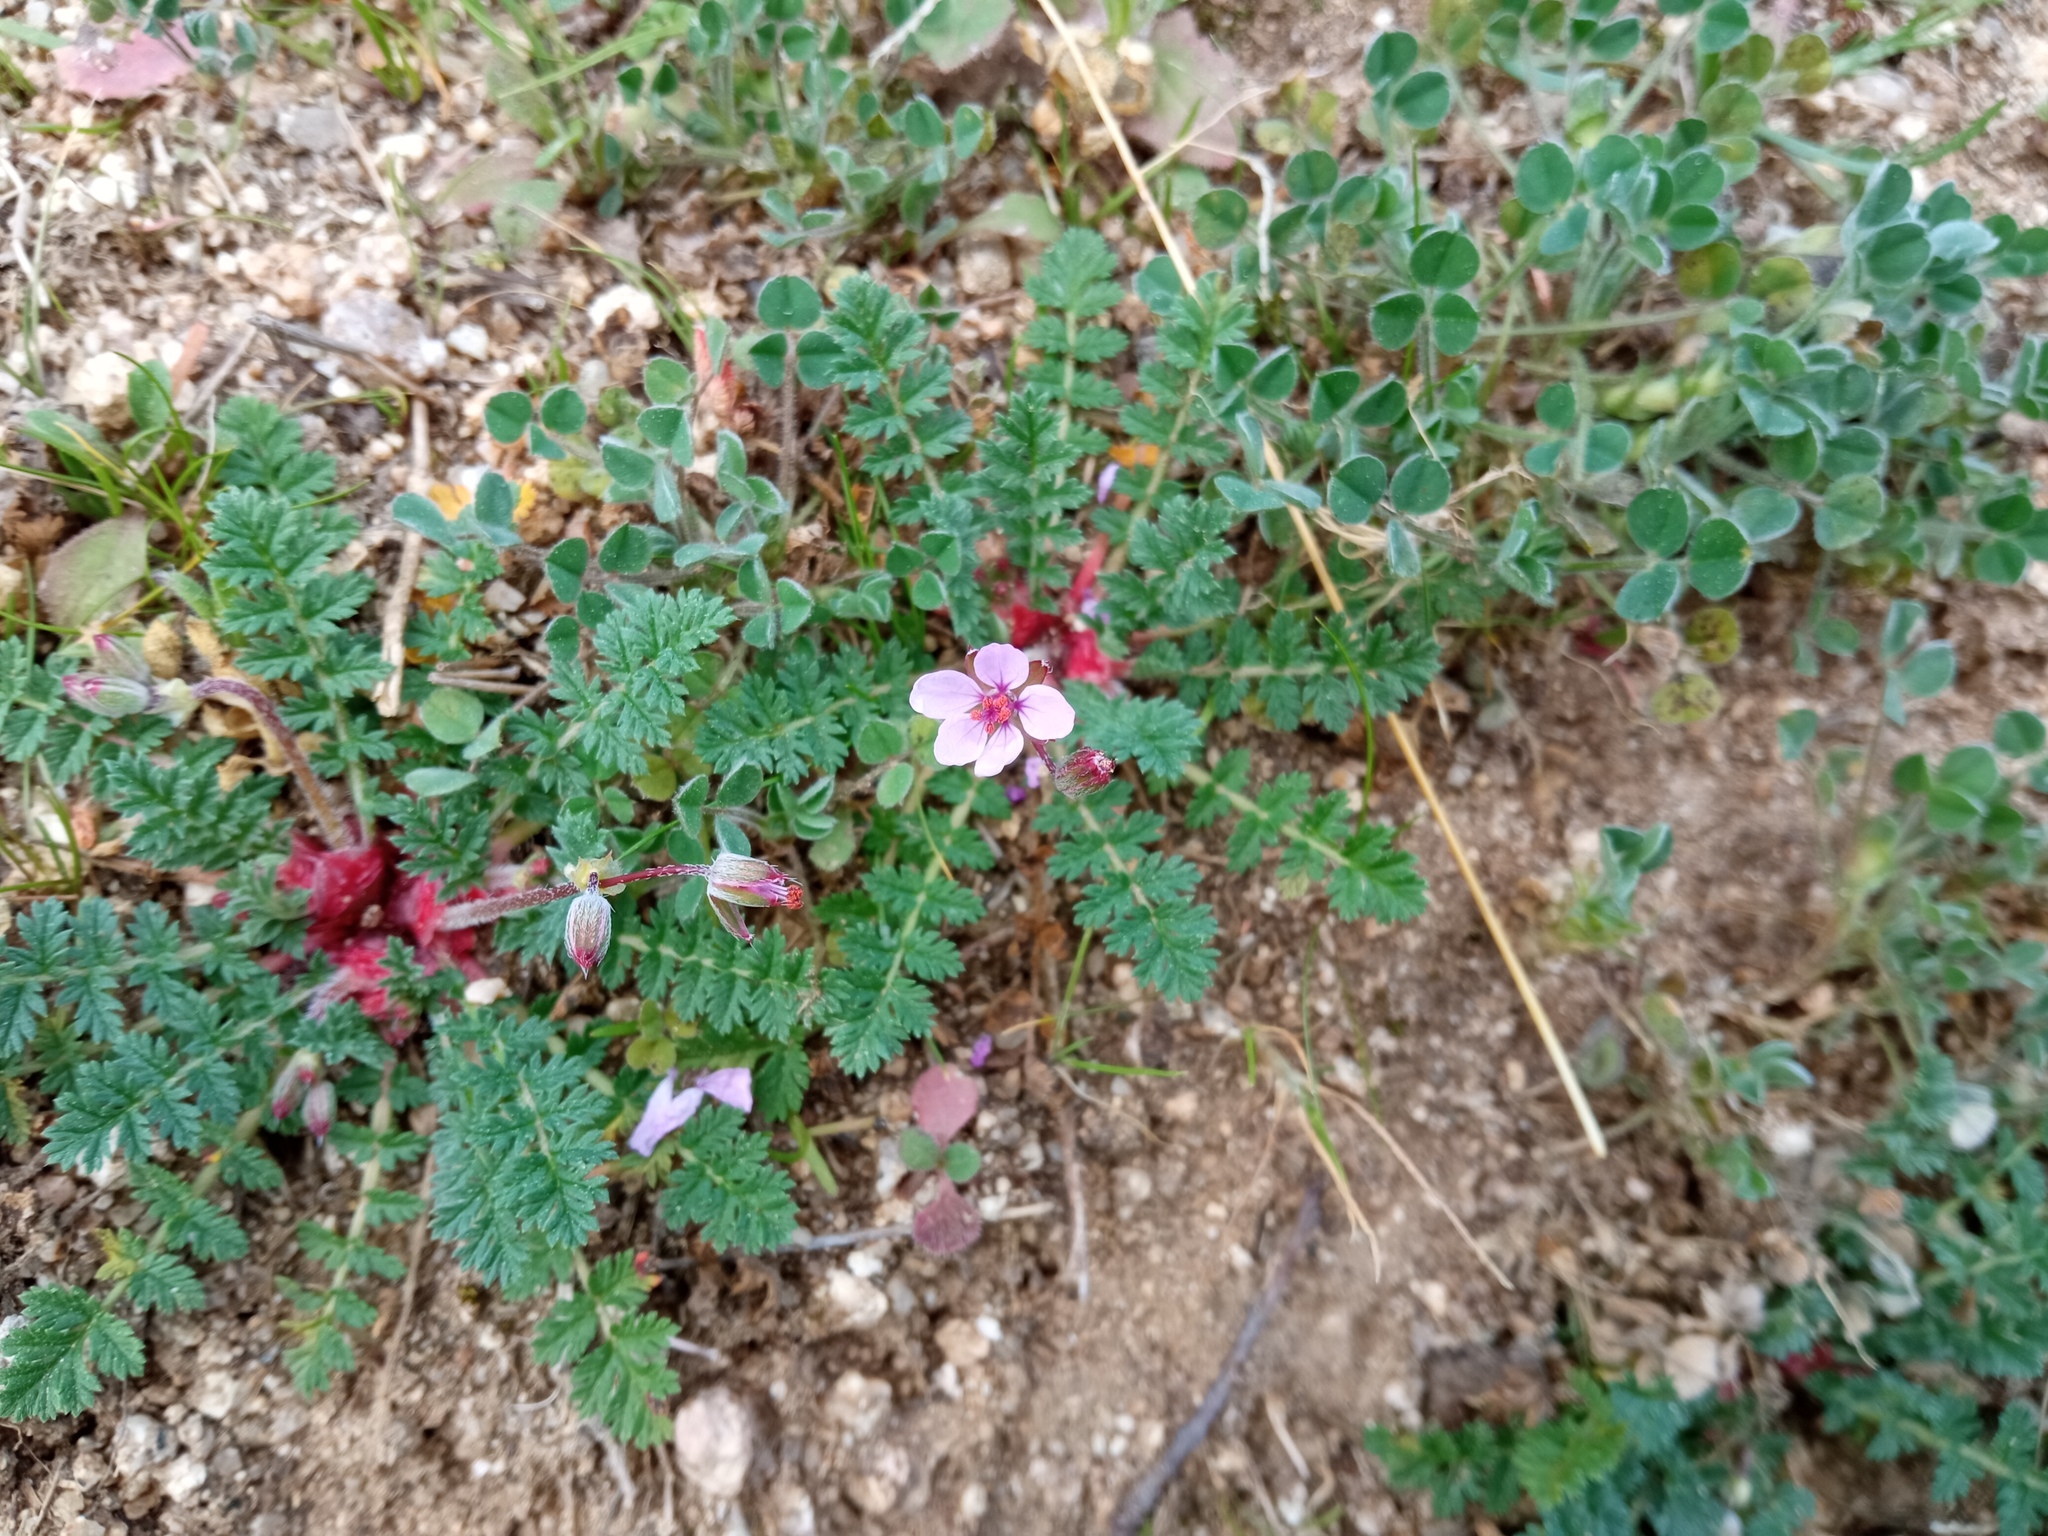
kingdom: Plantae
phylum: Tracheophyta
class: Magnoliopsida
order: Geraniales
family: Geraniaceae
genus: Erodium
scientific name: Erodium cicutarium
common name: Common stork's-bill
